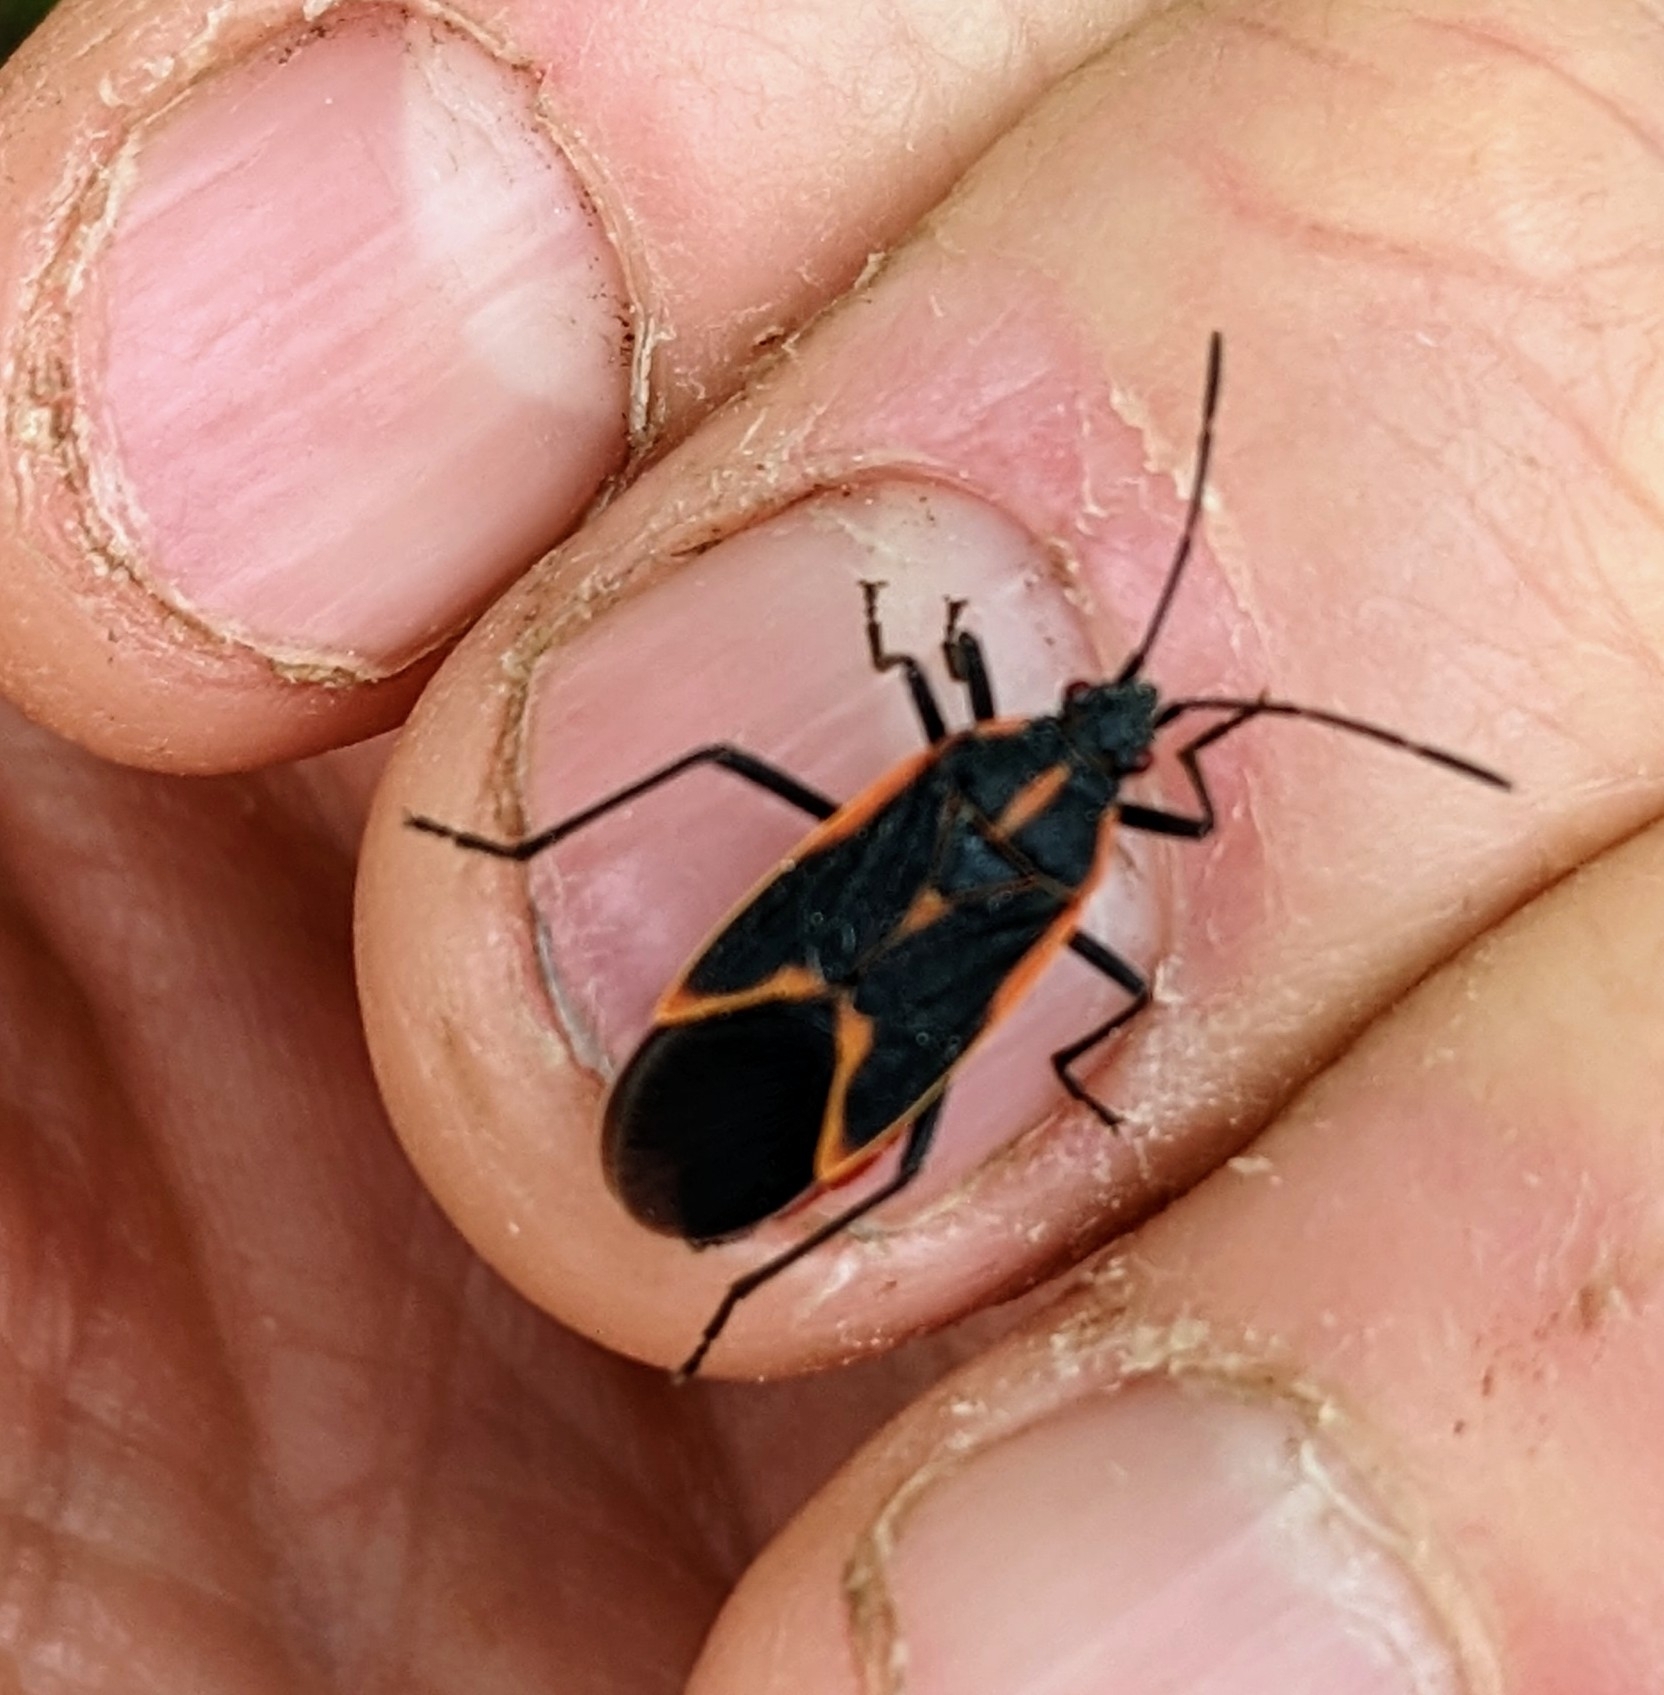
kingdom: Animalia
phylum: Arthropoda
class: Insecta
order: Hemiptera
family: Rhopalidae
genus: Boisea
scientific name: Boisea trivittata
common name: Boxelder bug
